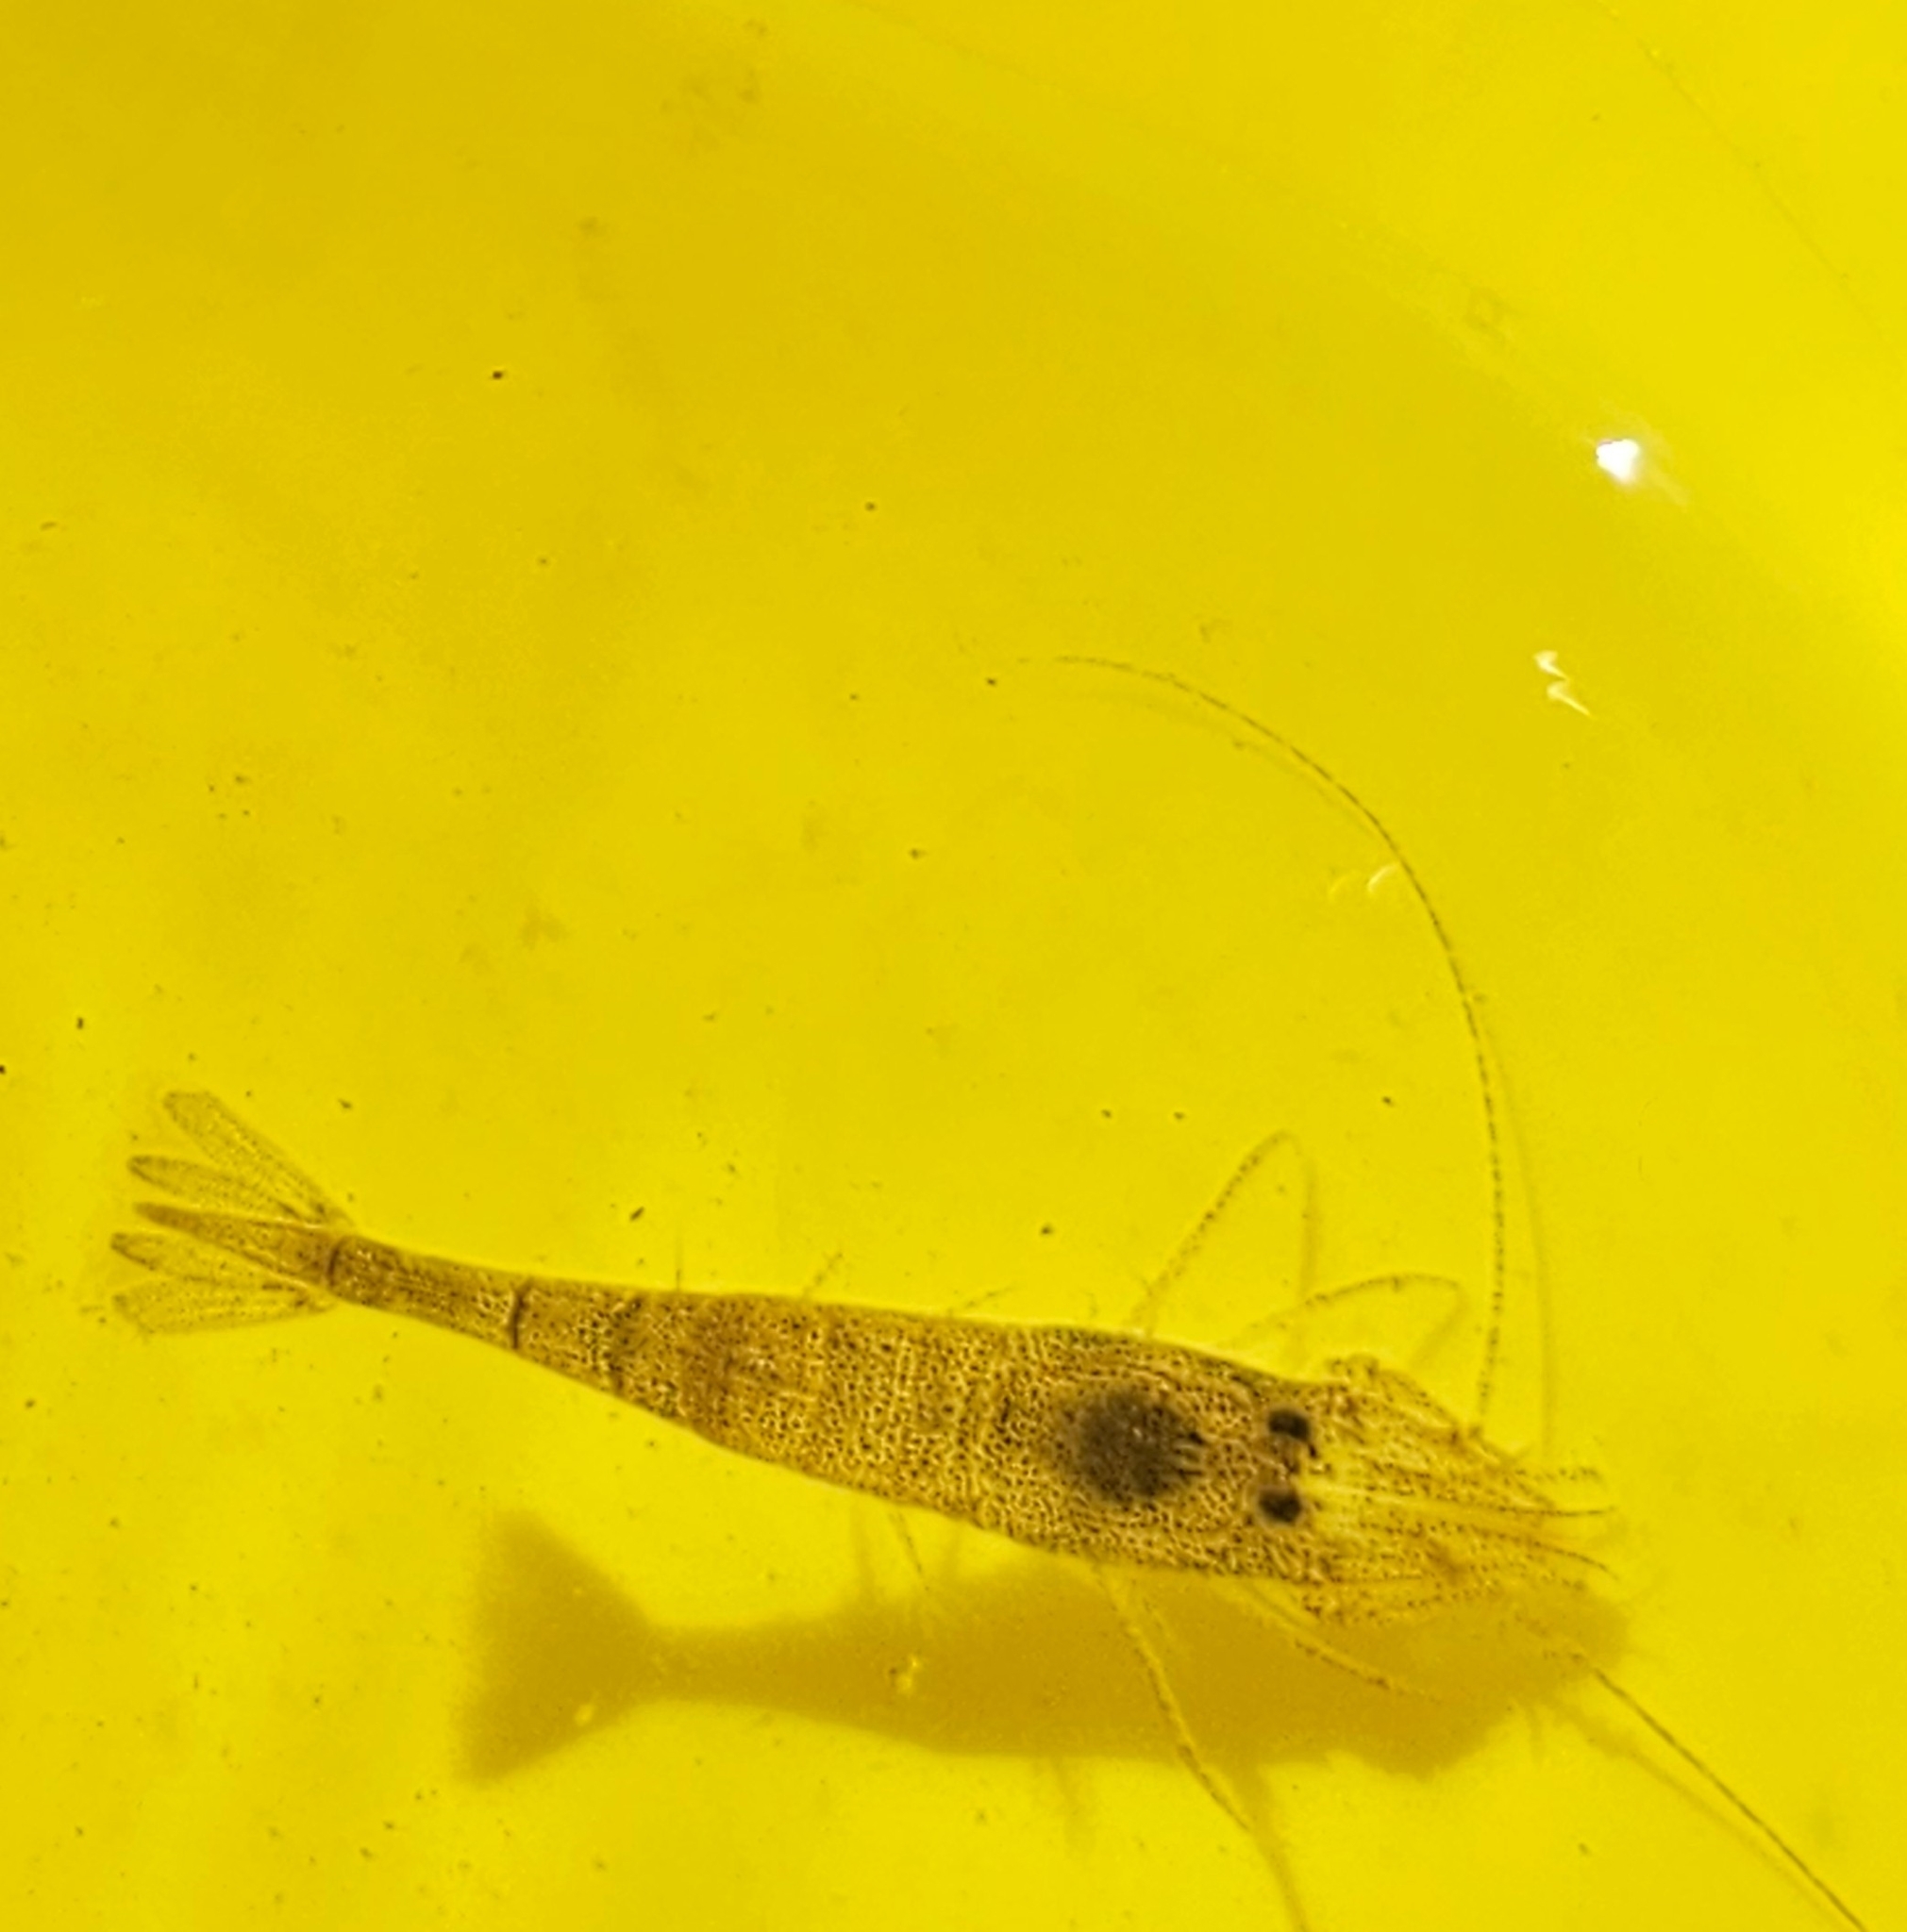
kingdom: Animalia
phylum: Arthropoda
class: Malacostraca
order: Decapoda
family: Crangonidae
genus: Crangon
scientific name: Crangon septemspinosa
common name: Bail shrimp
